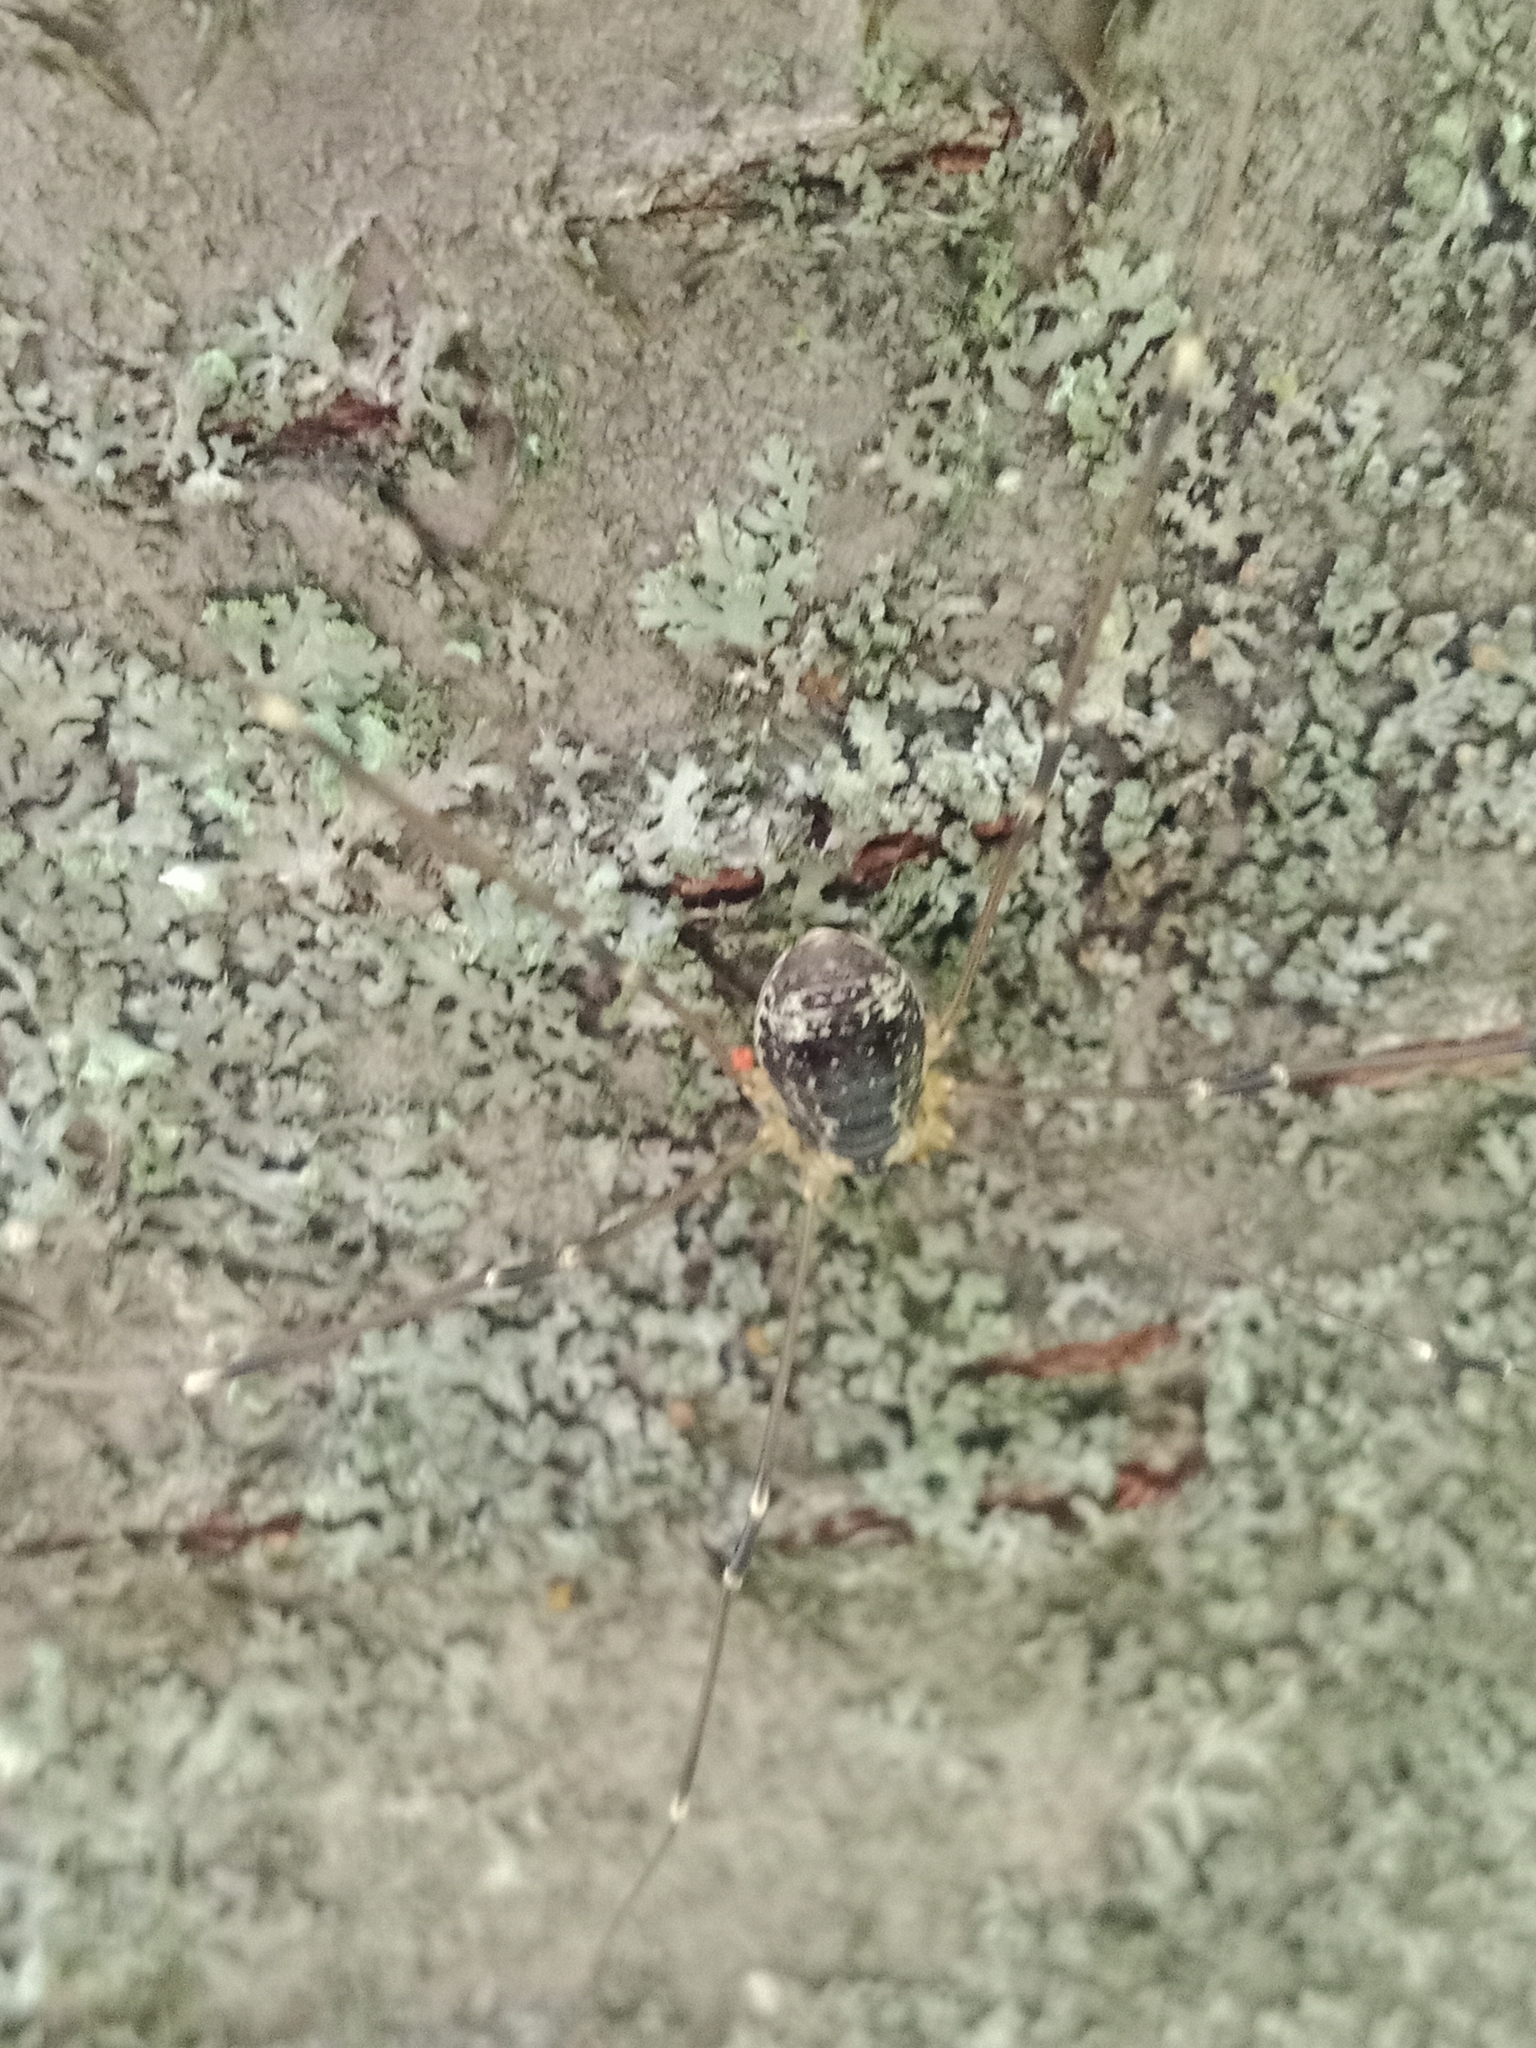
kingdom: Animalia
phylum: Arthropoda
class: Arachnida
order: Opiliones
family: Sclerosomatidae
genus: Leiobunum
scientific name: Leiobunum gracile
